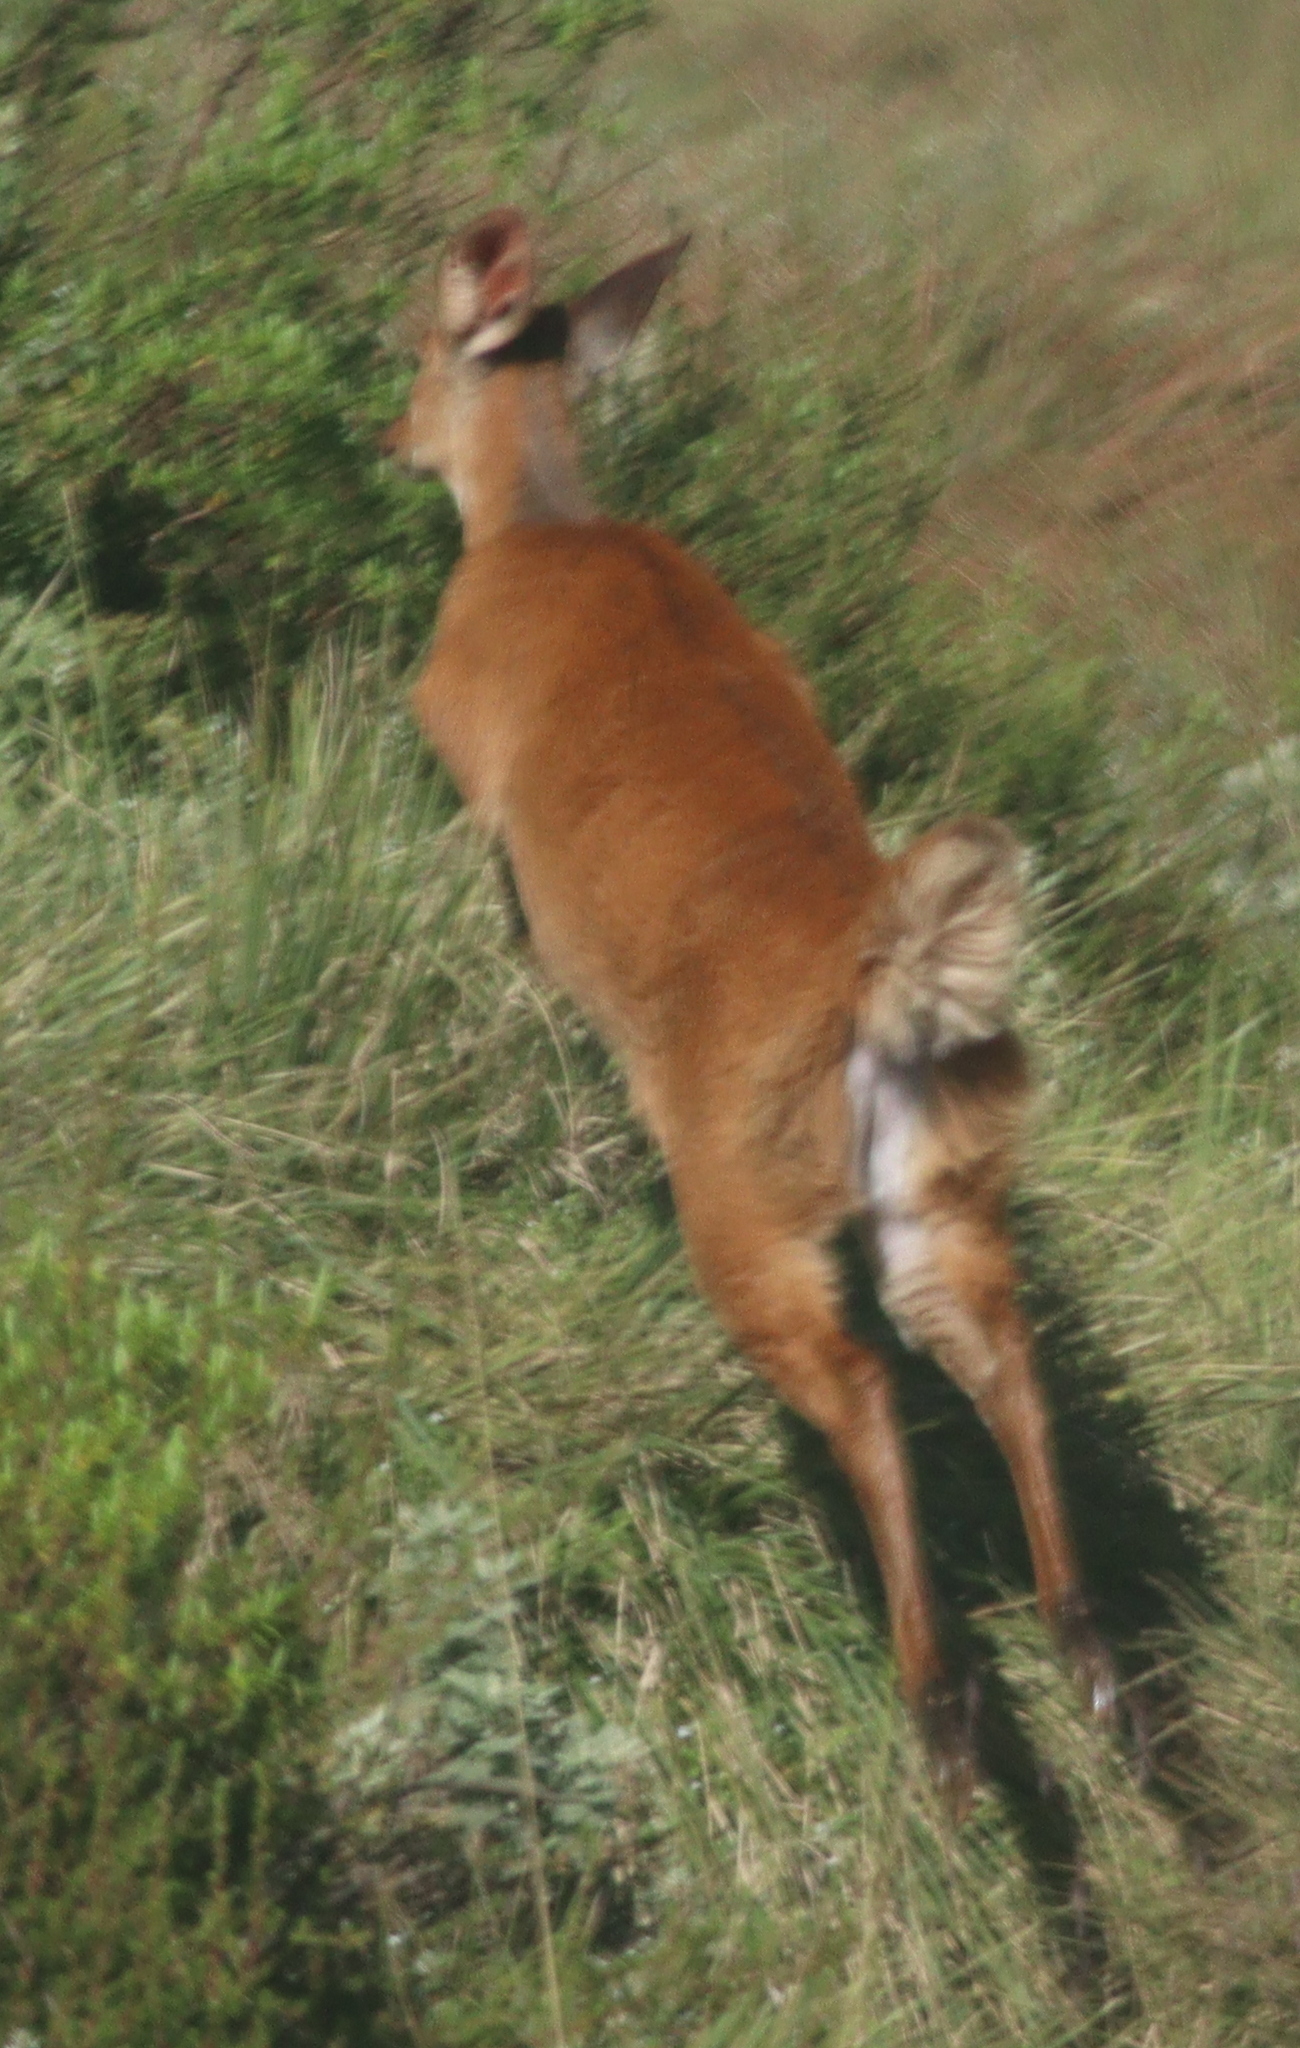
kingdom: Animalia
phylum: Chordata
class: Mammalia
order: Artiodactyla
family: Bovidae
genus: Tragelaphus
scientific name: Tragelaphus scriptus
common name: Bushbuck
